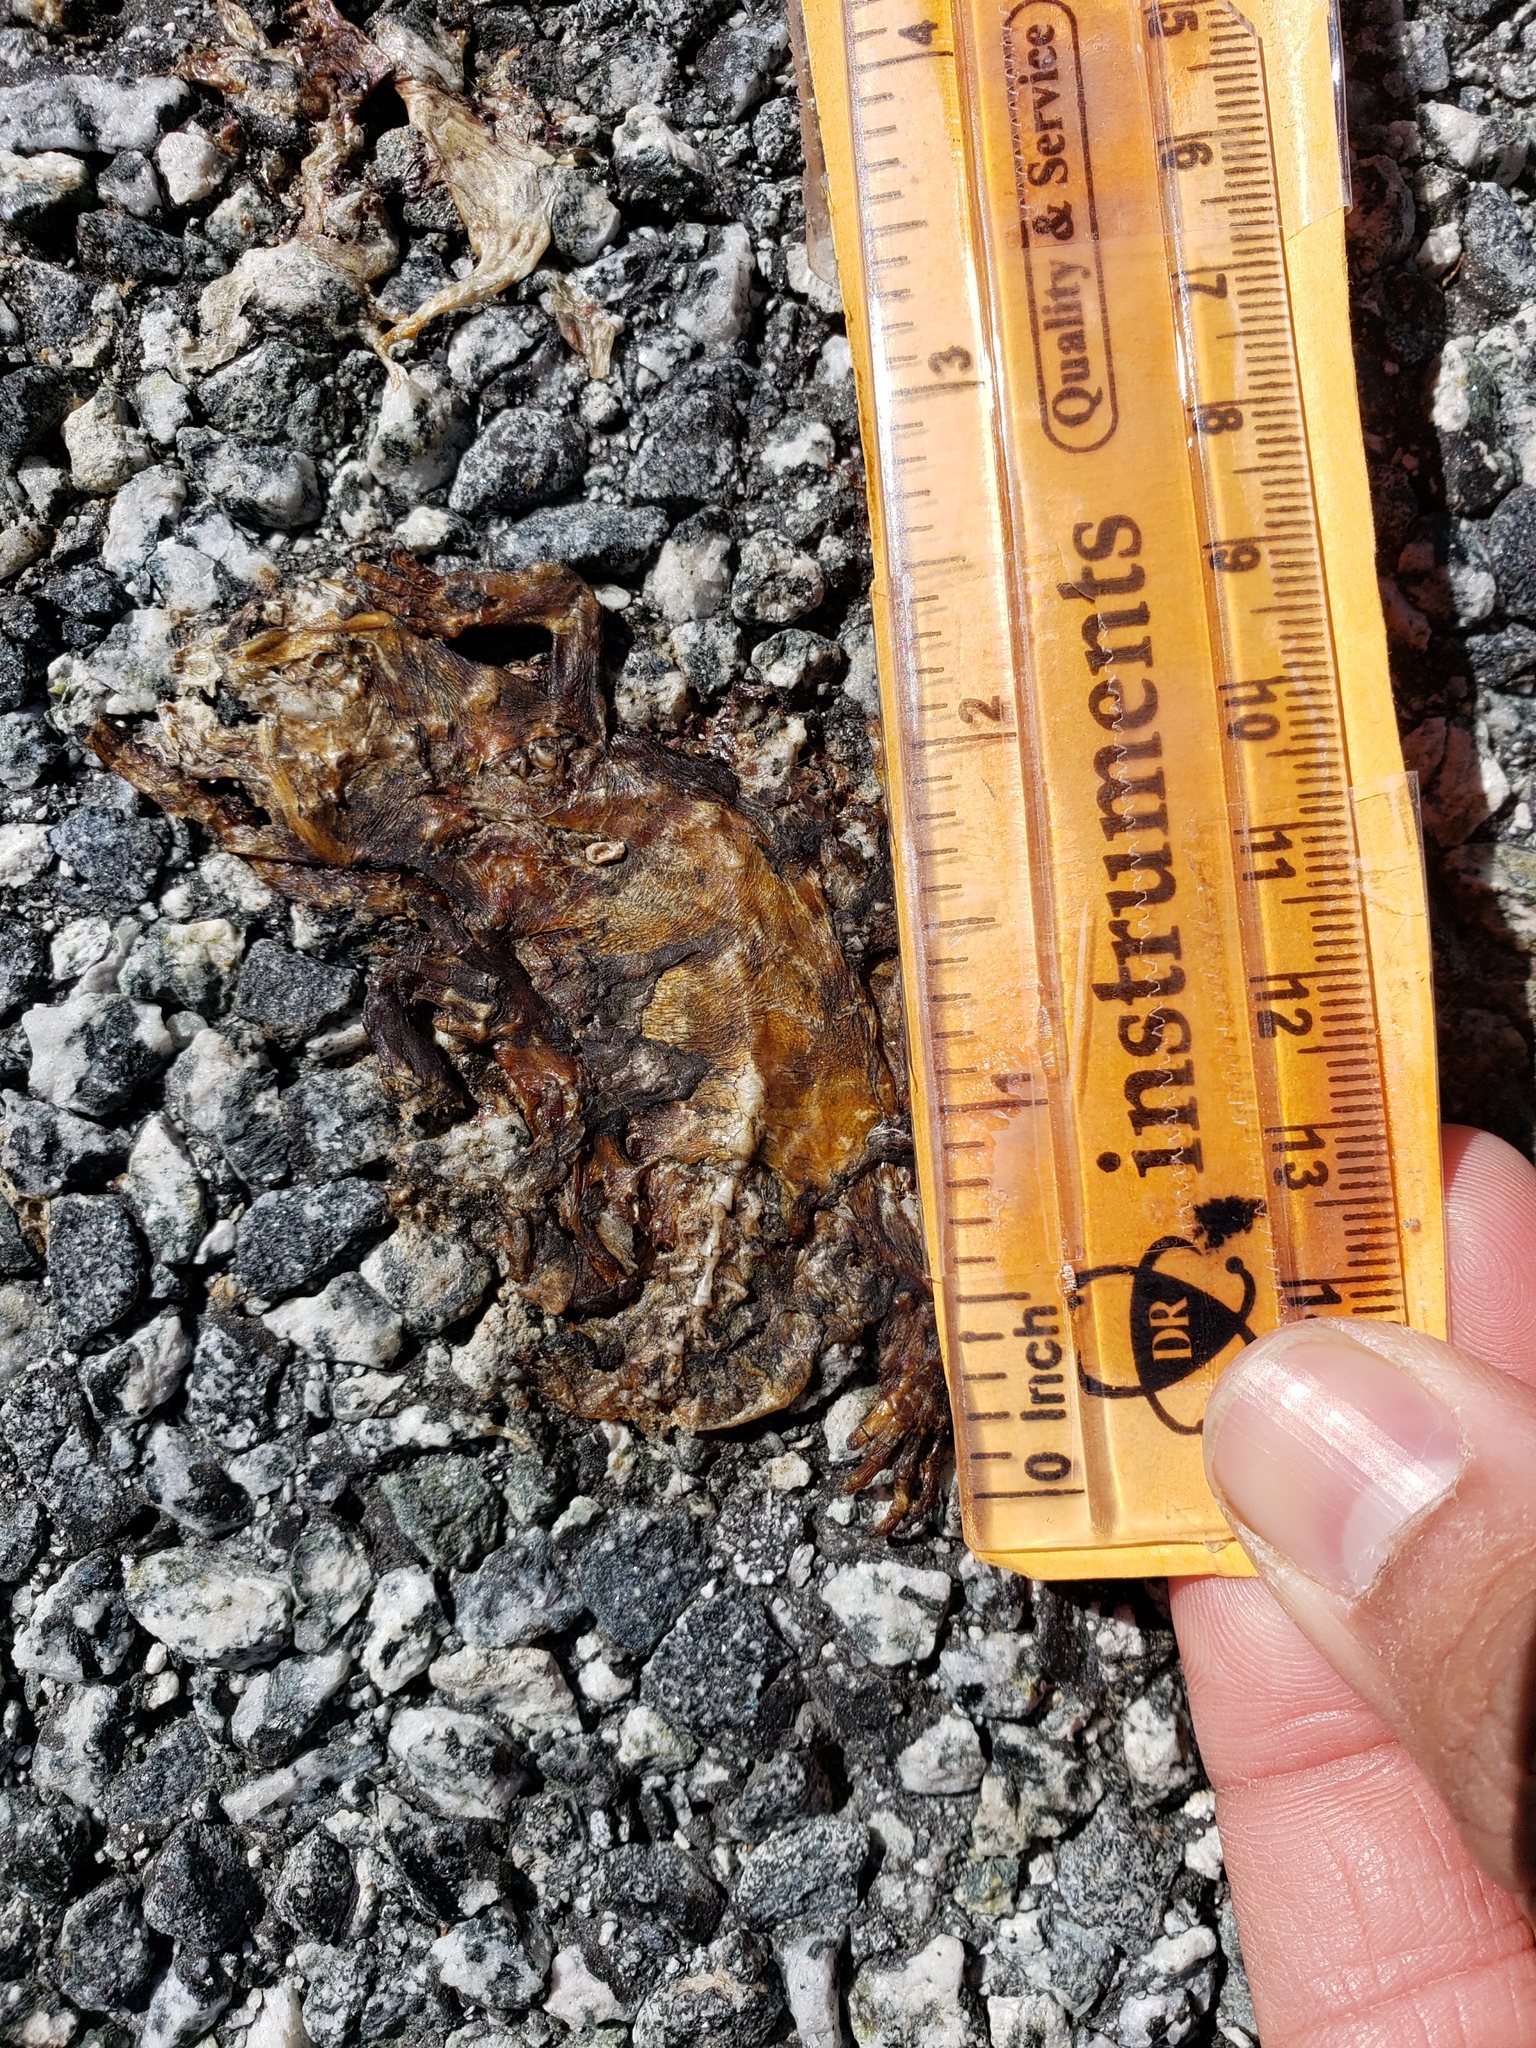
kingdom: Animalia
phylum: Chordata
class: Amphibia
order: Caudata
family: Salamandridae
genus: Taricha
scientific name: Taricha
